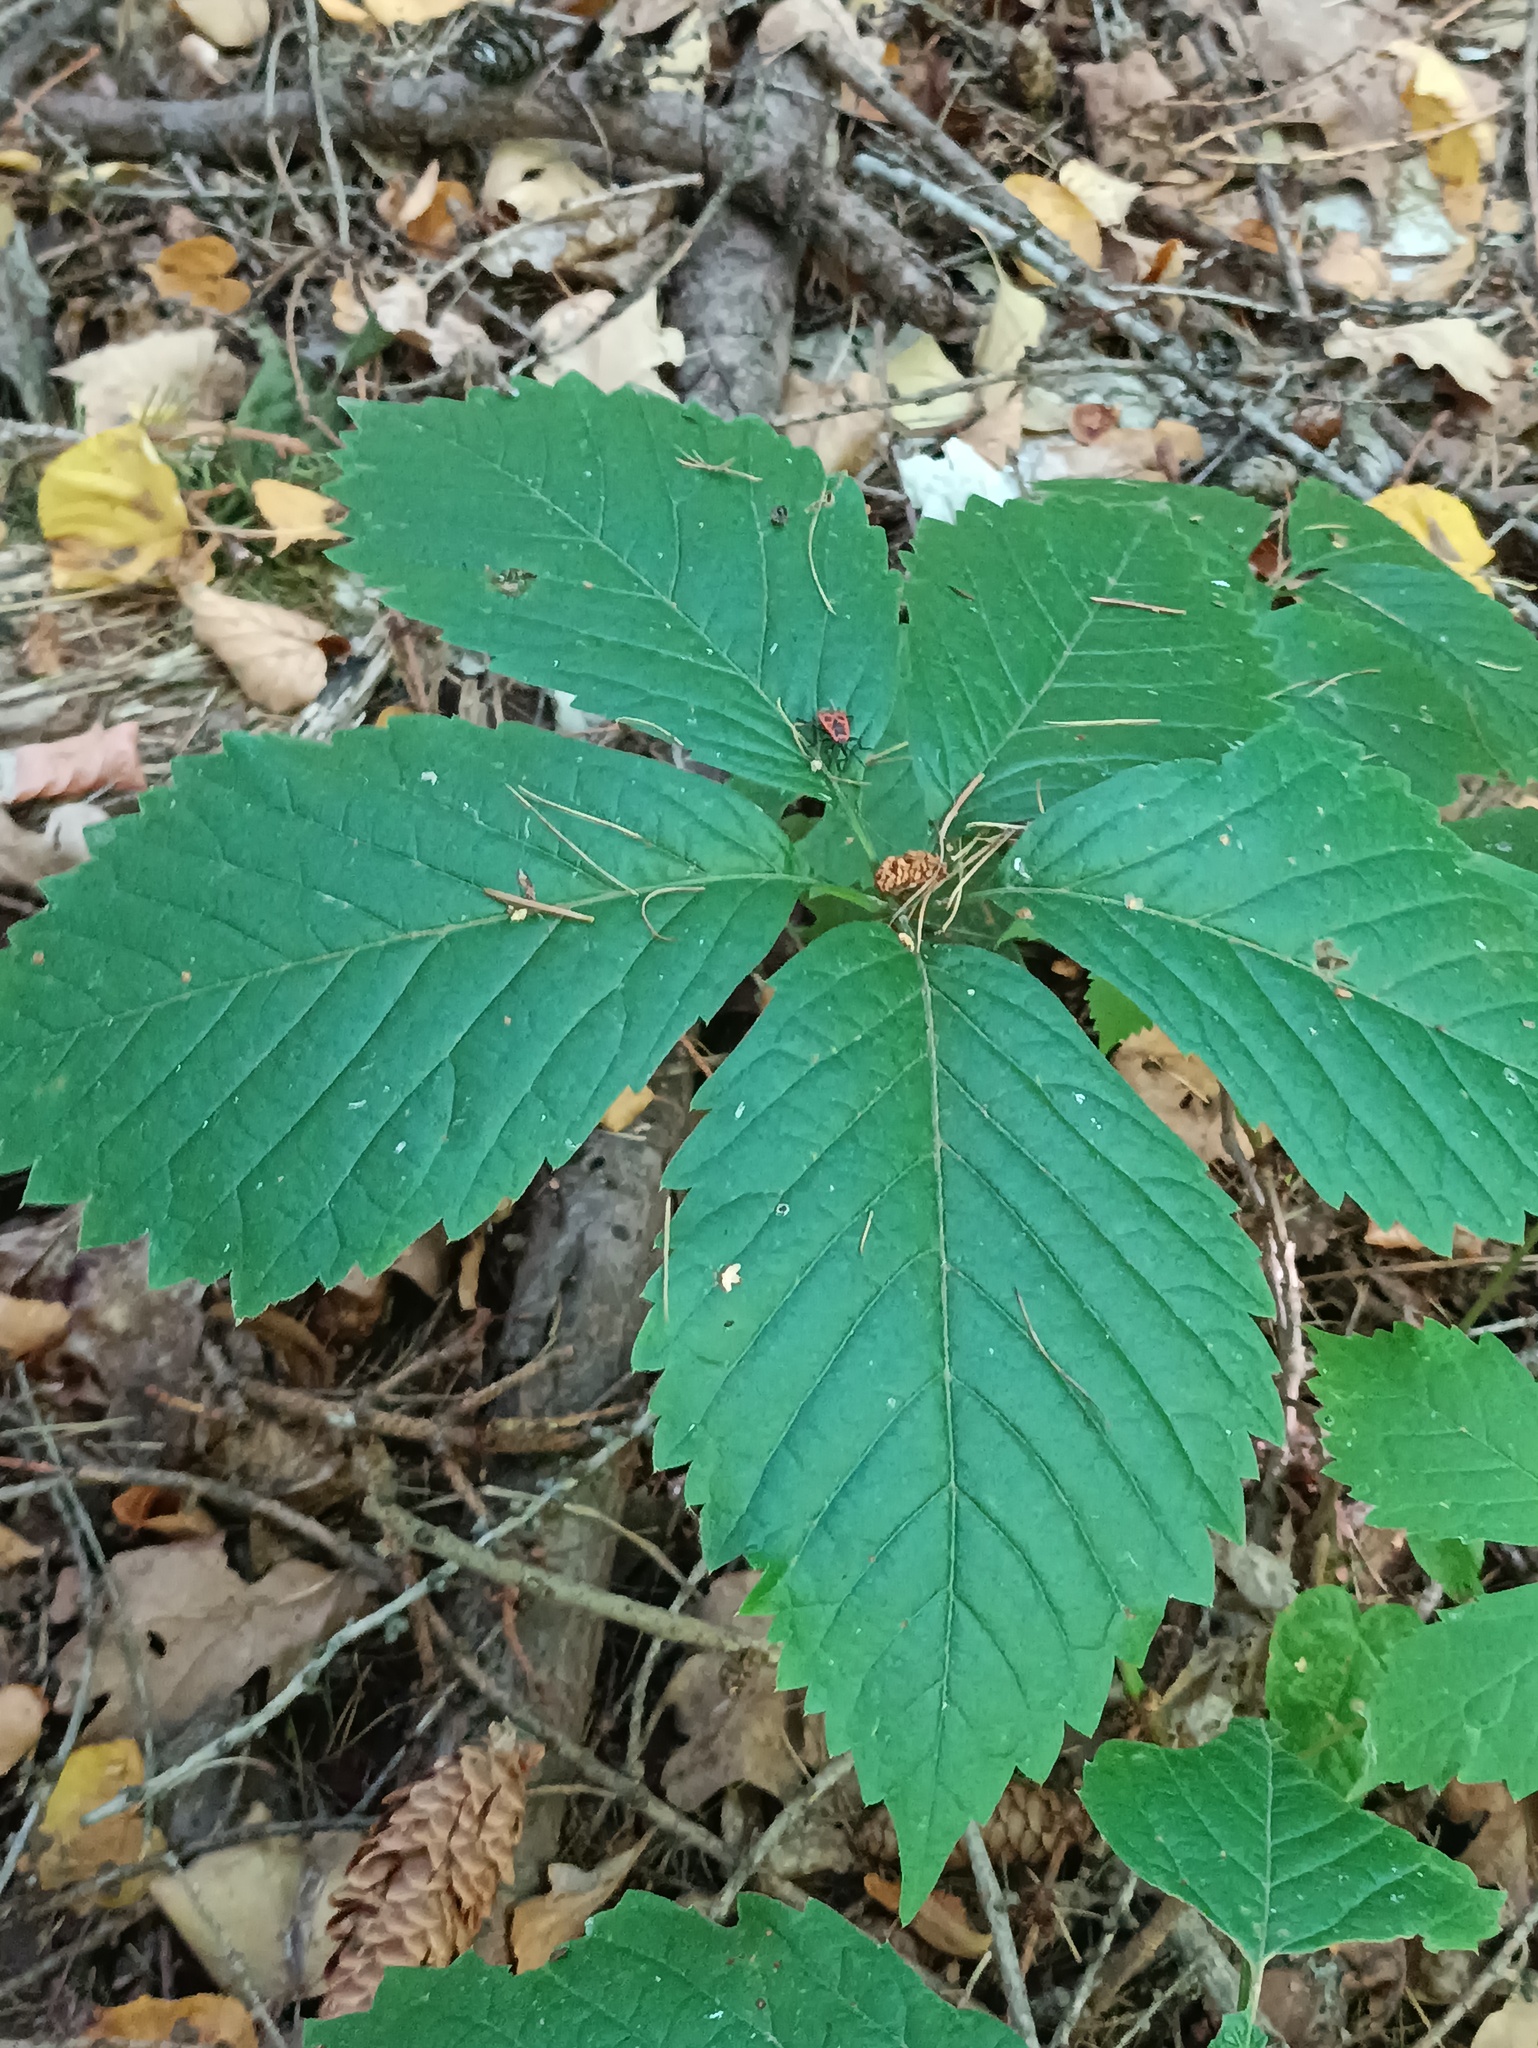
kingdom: Plantae
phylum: Tracheophyta
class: Magnoliopsida
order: Vitales
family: Vitaceae
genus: Parthenocissus
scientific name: Parthenocissus inserta
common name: False virginia-creeper
